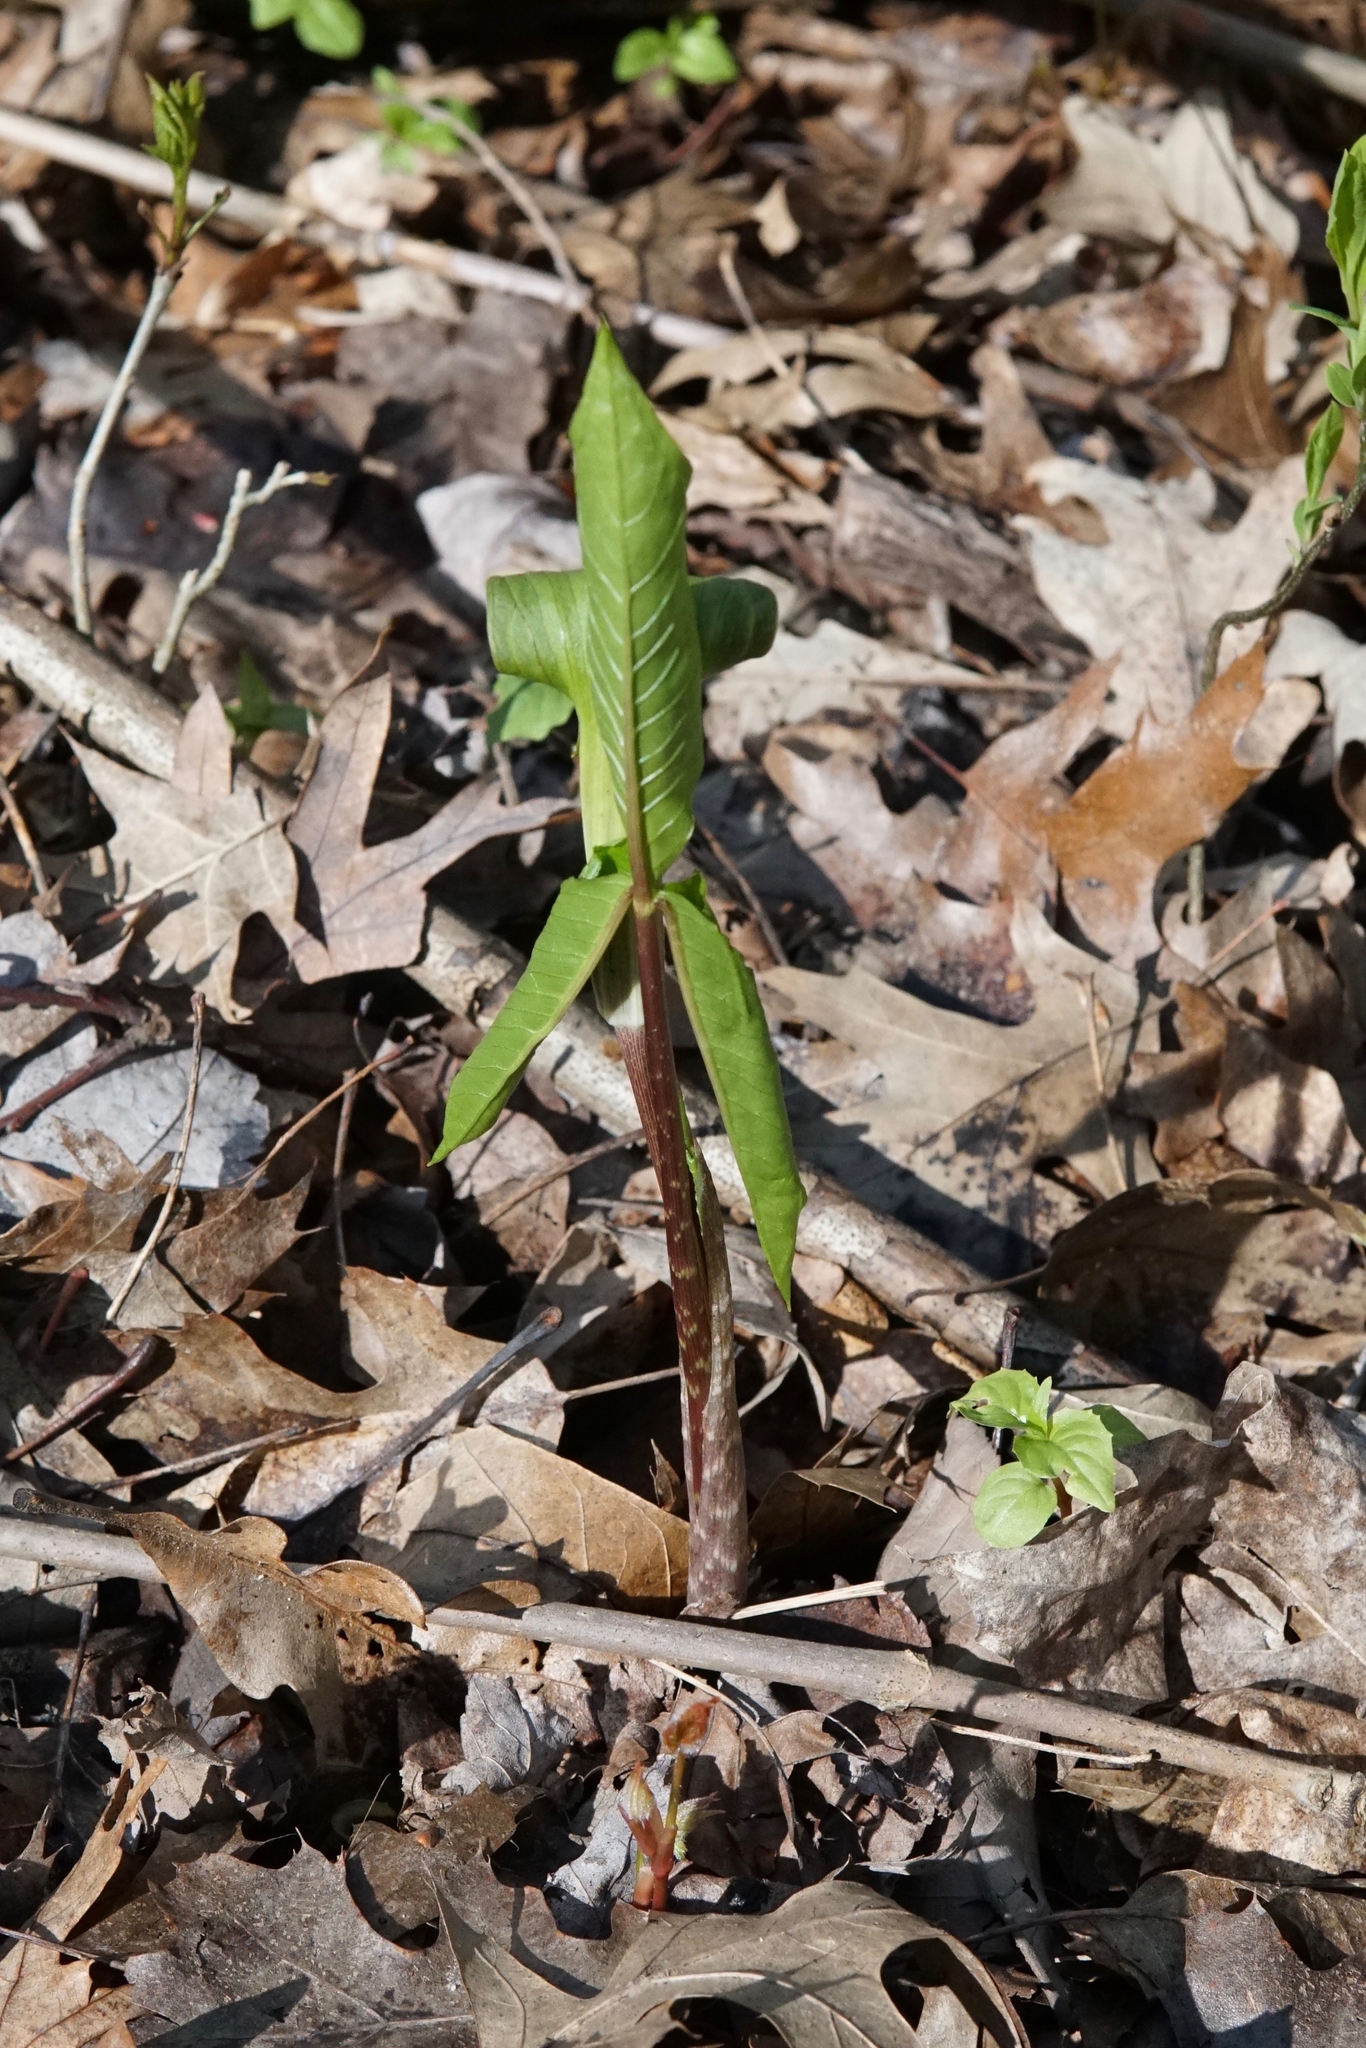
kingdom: Plantae
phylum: Tracheophyta
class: Liliopsida
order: Alismatales
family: Araceae
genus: Arisaema
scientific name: Arisaema triphyllum
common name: Jack-in-the-pulpit
